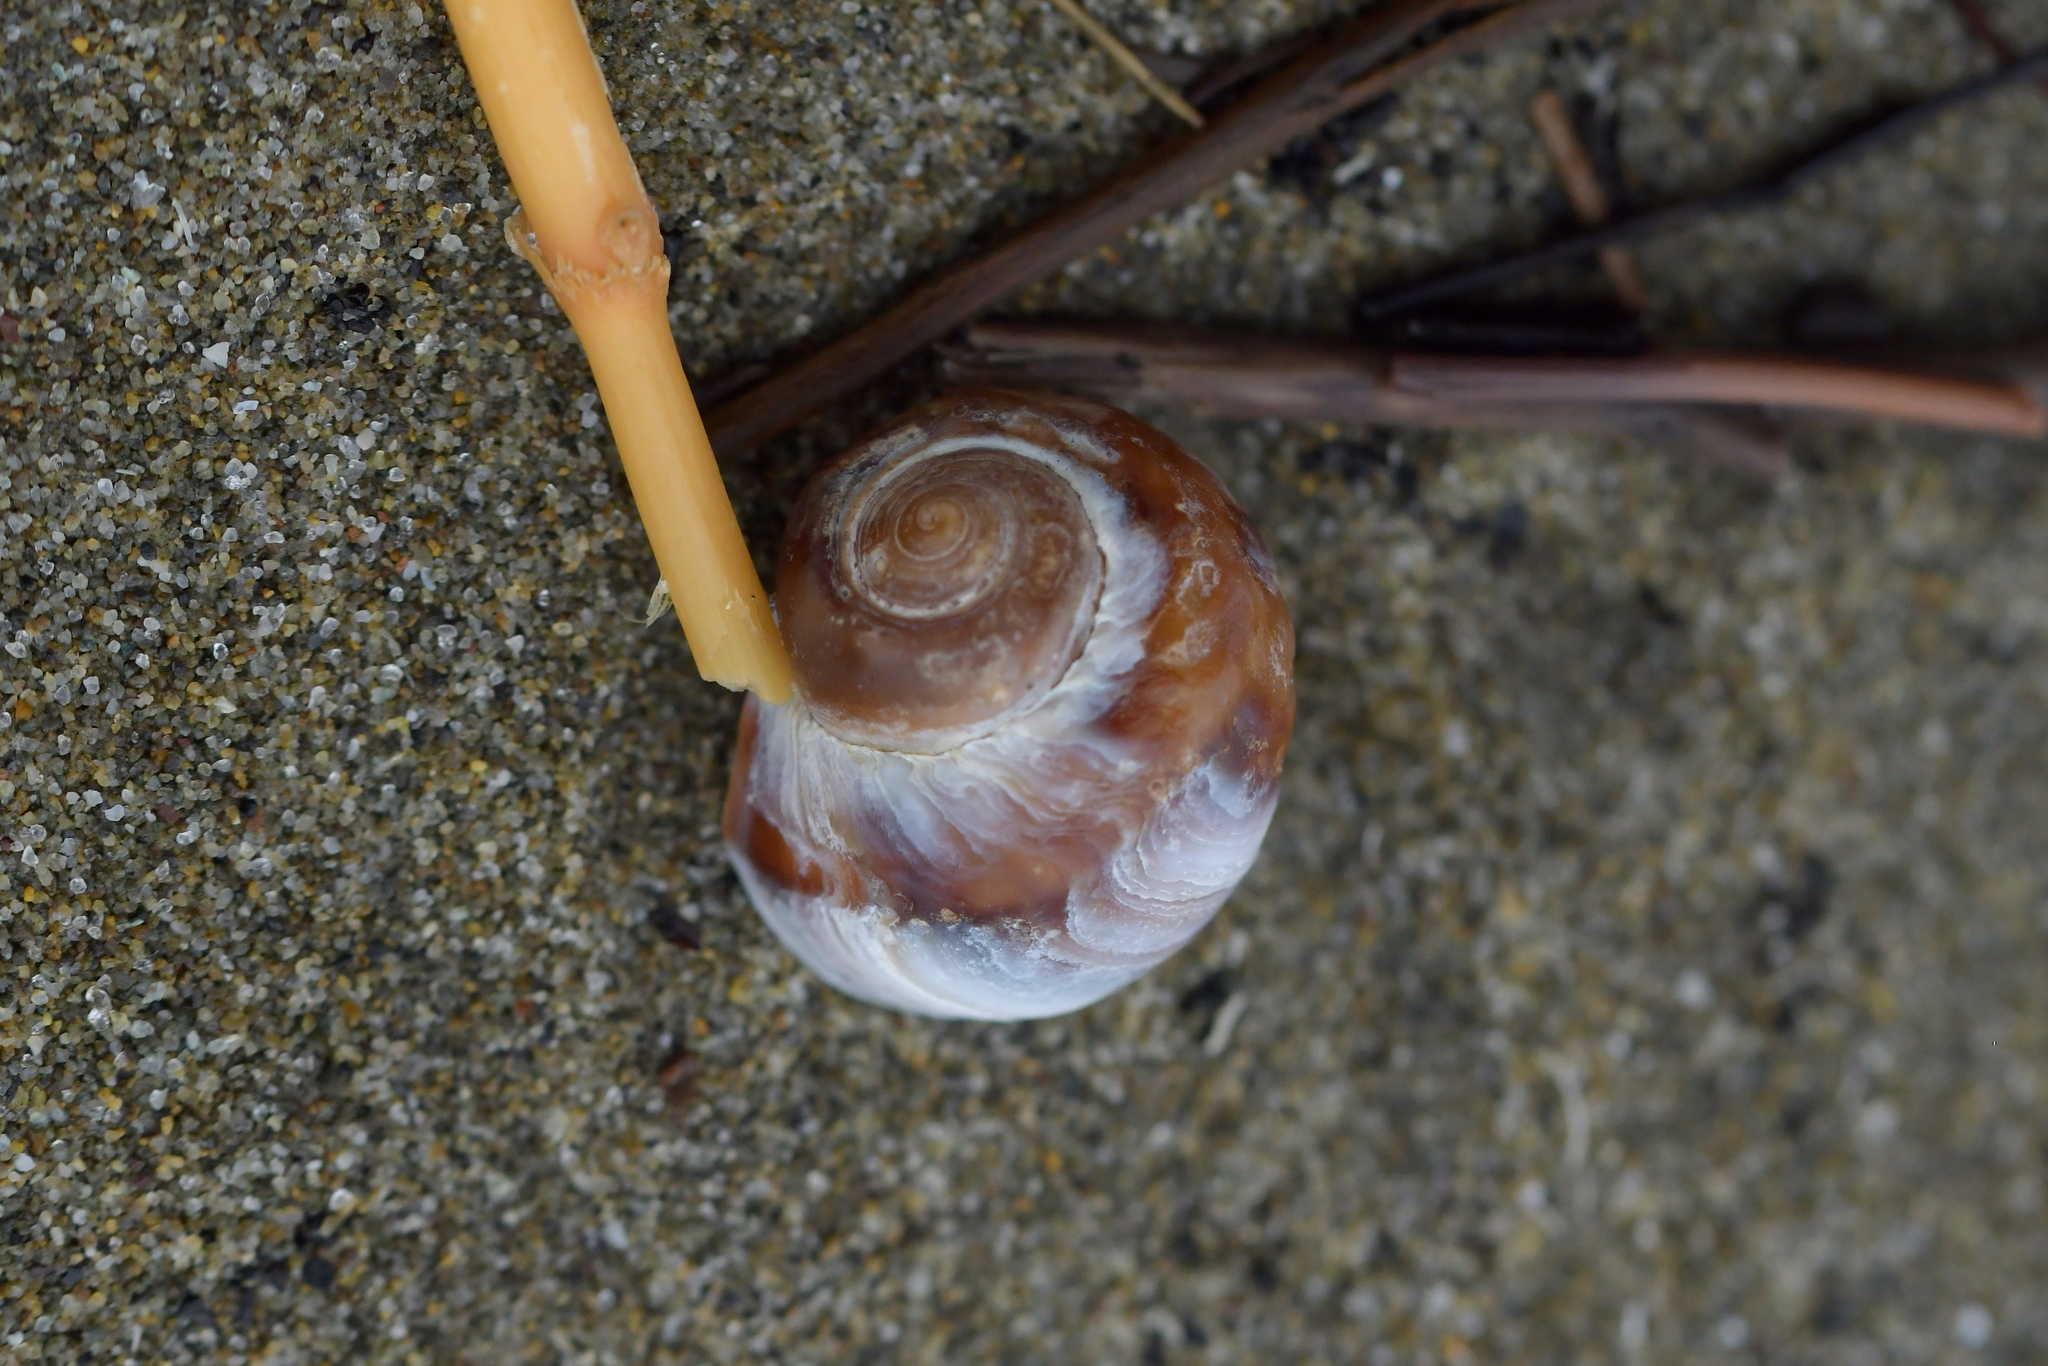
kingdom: Animalia
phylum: Mollusca
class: Gastropoda
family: Amphibolidae
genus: Amphibola
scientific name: Amphibola crenata
